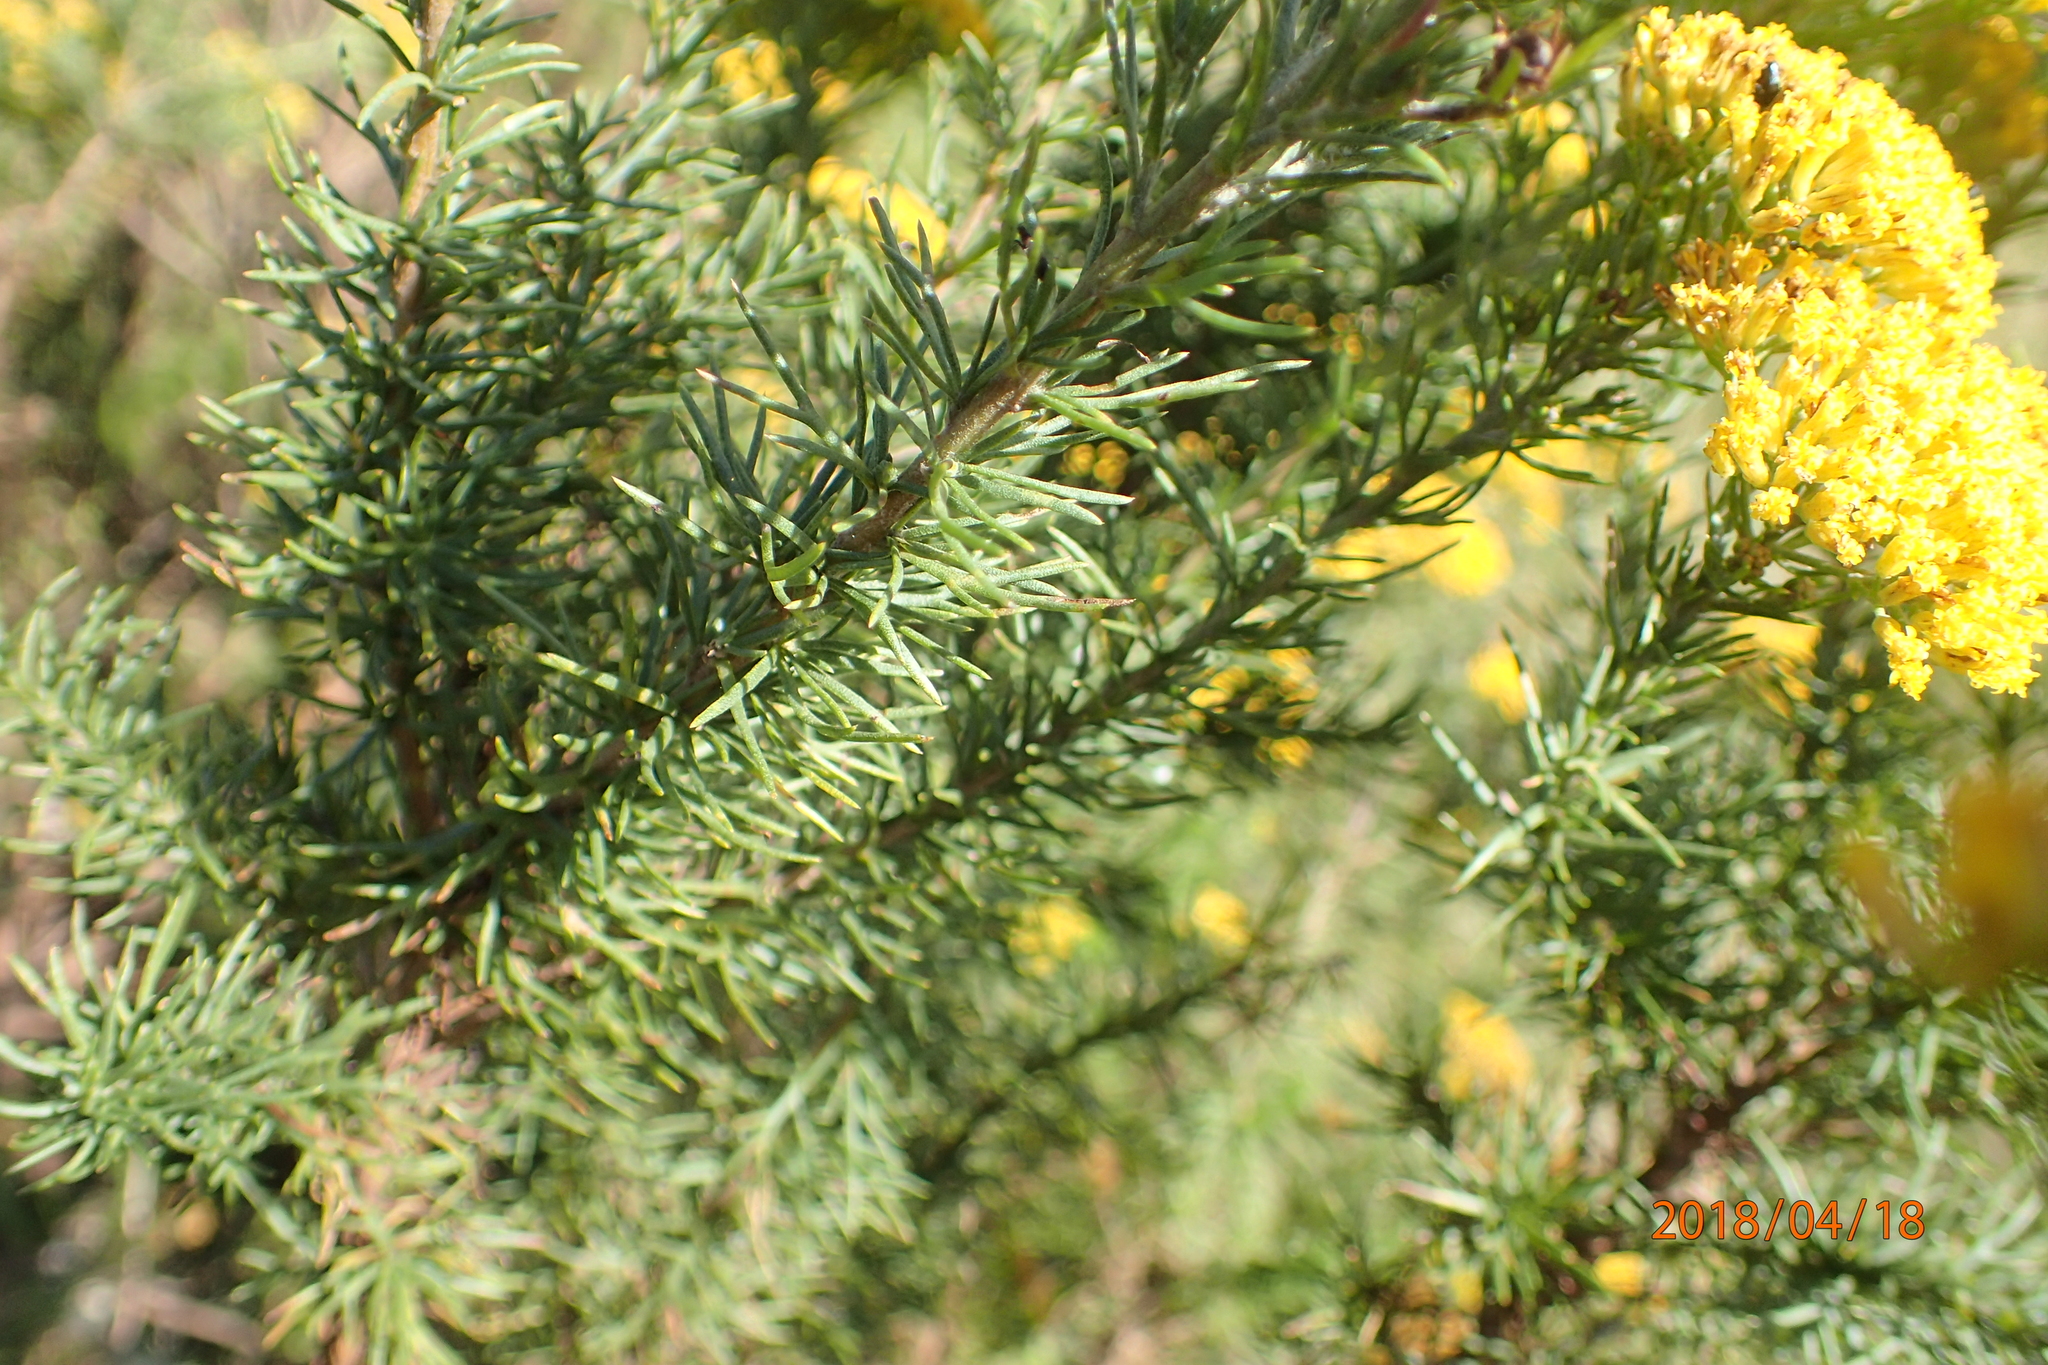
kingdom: Plantae
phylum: Tracheophyta
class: Magnoliopsida
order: Asterales
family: Asteraceae
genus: Phymaspermum
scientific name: Phymaspermum acerosum
